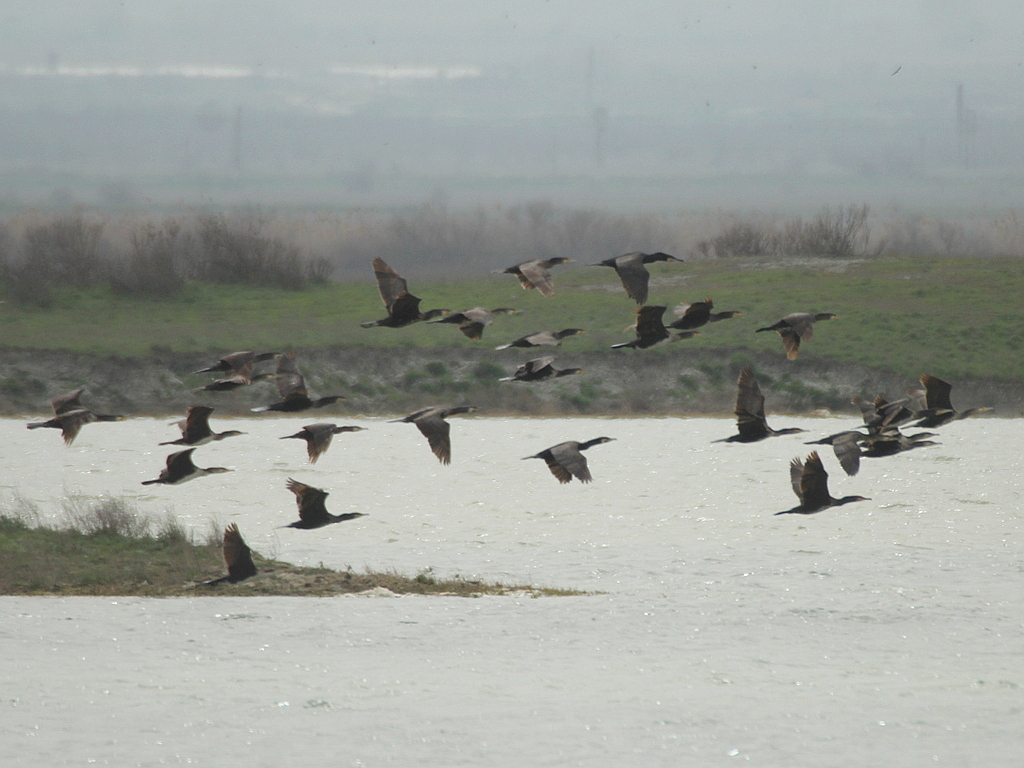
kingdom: Animalia
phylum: Chordata
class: Aves
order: Suliformes
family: Phalacrocoracidae
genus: Phalacrocorax
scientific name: Phalacrocorax carbo
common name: Great cormorant
